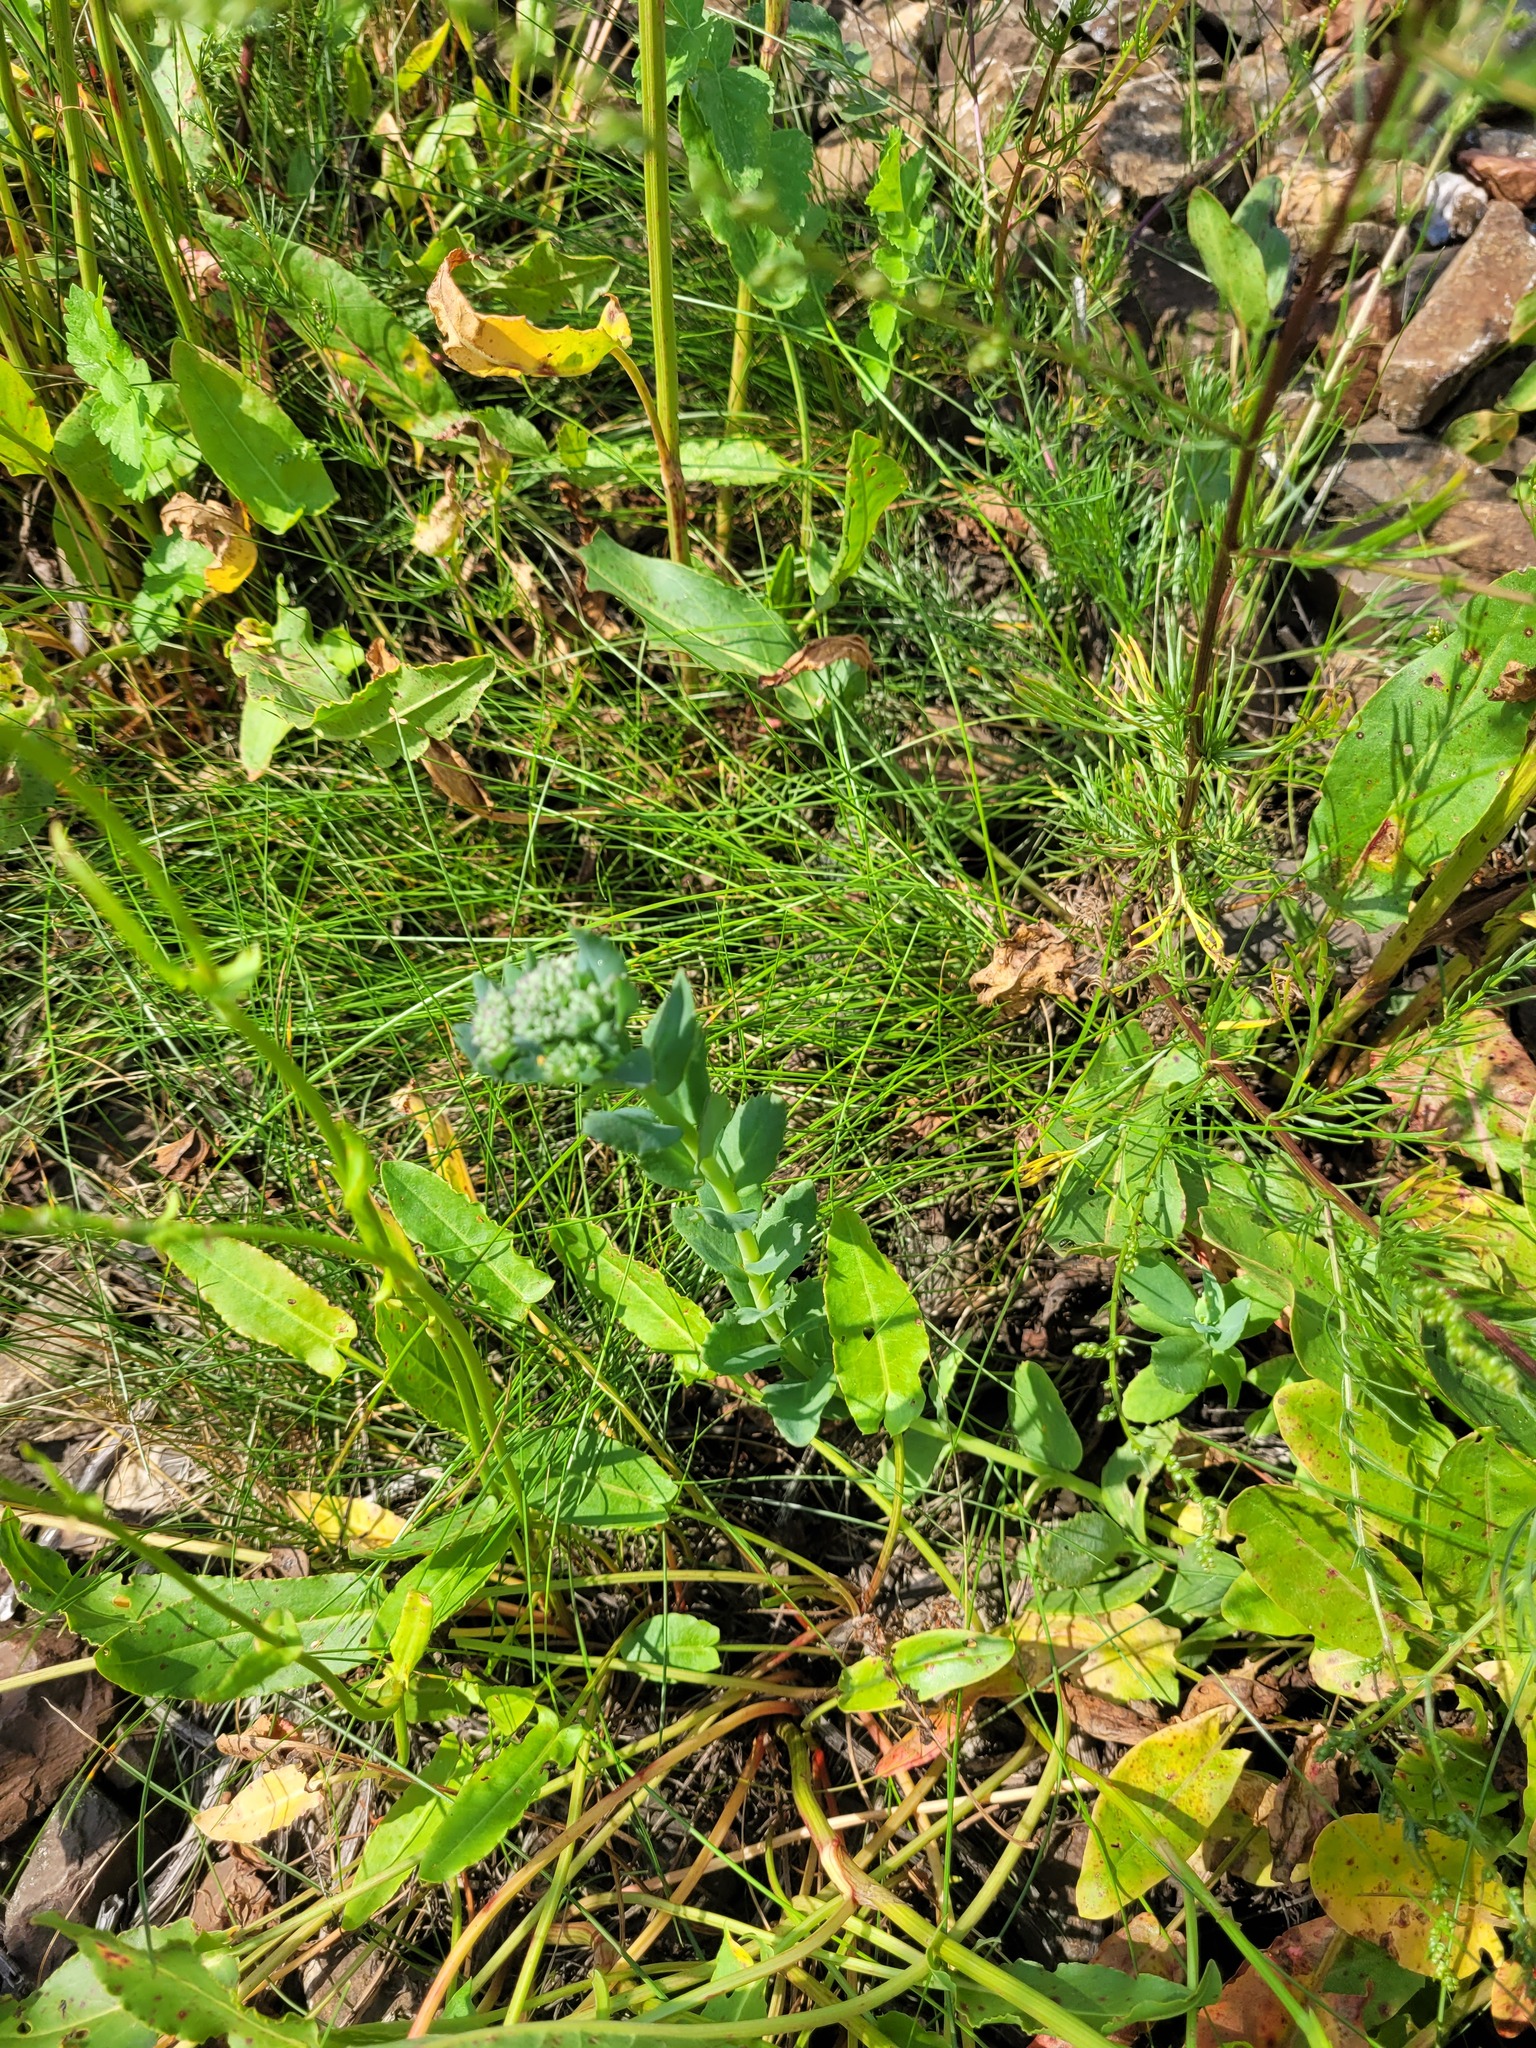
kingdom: Plantae
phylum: Tracheophyta
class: Magnoliopsida
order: Saxifragales
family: Crassulaceae
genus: Hylotelephium
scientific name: Hylotelephium telephium
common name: Live-forever
